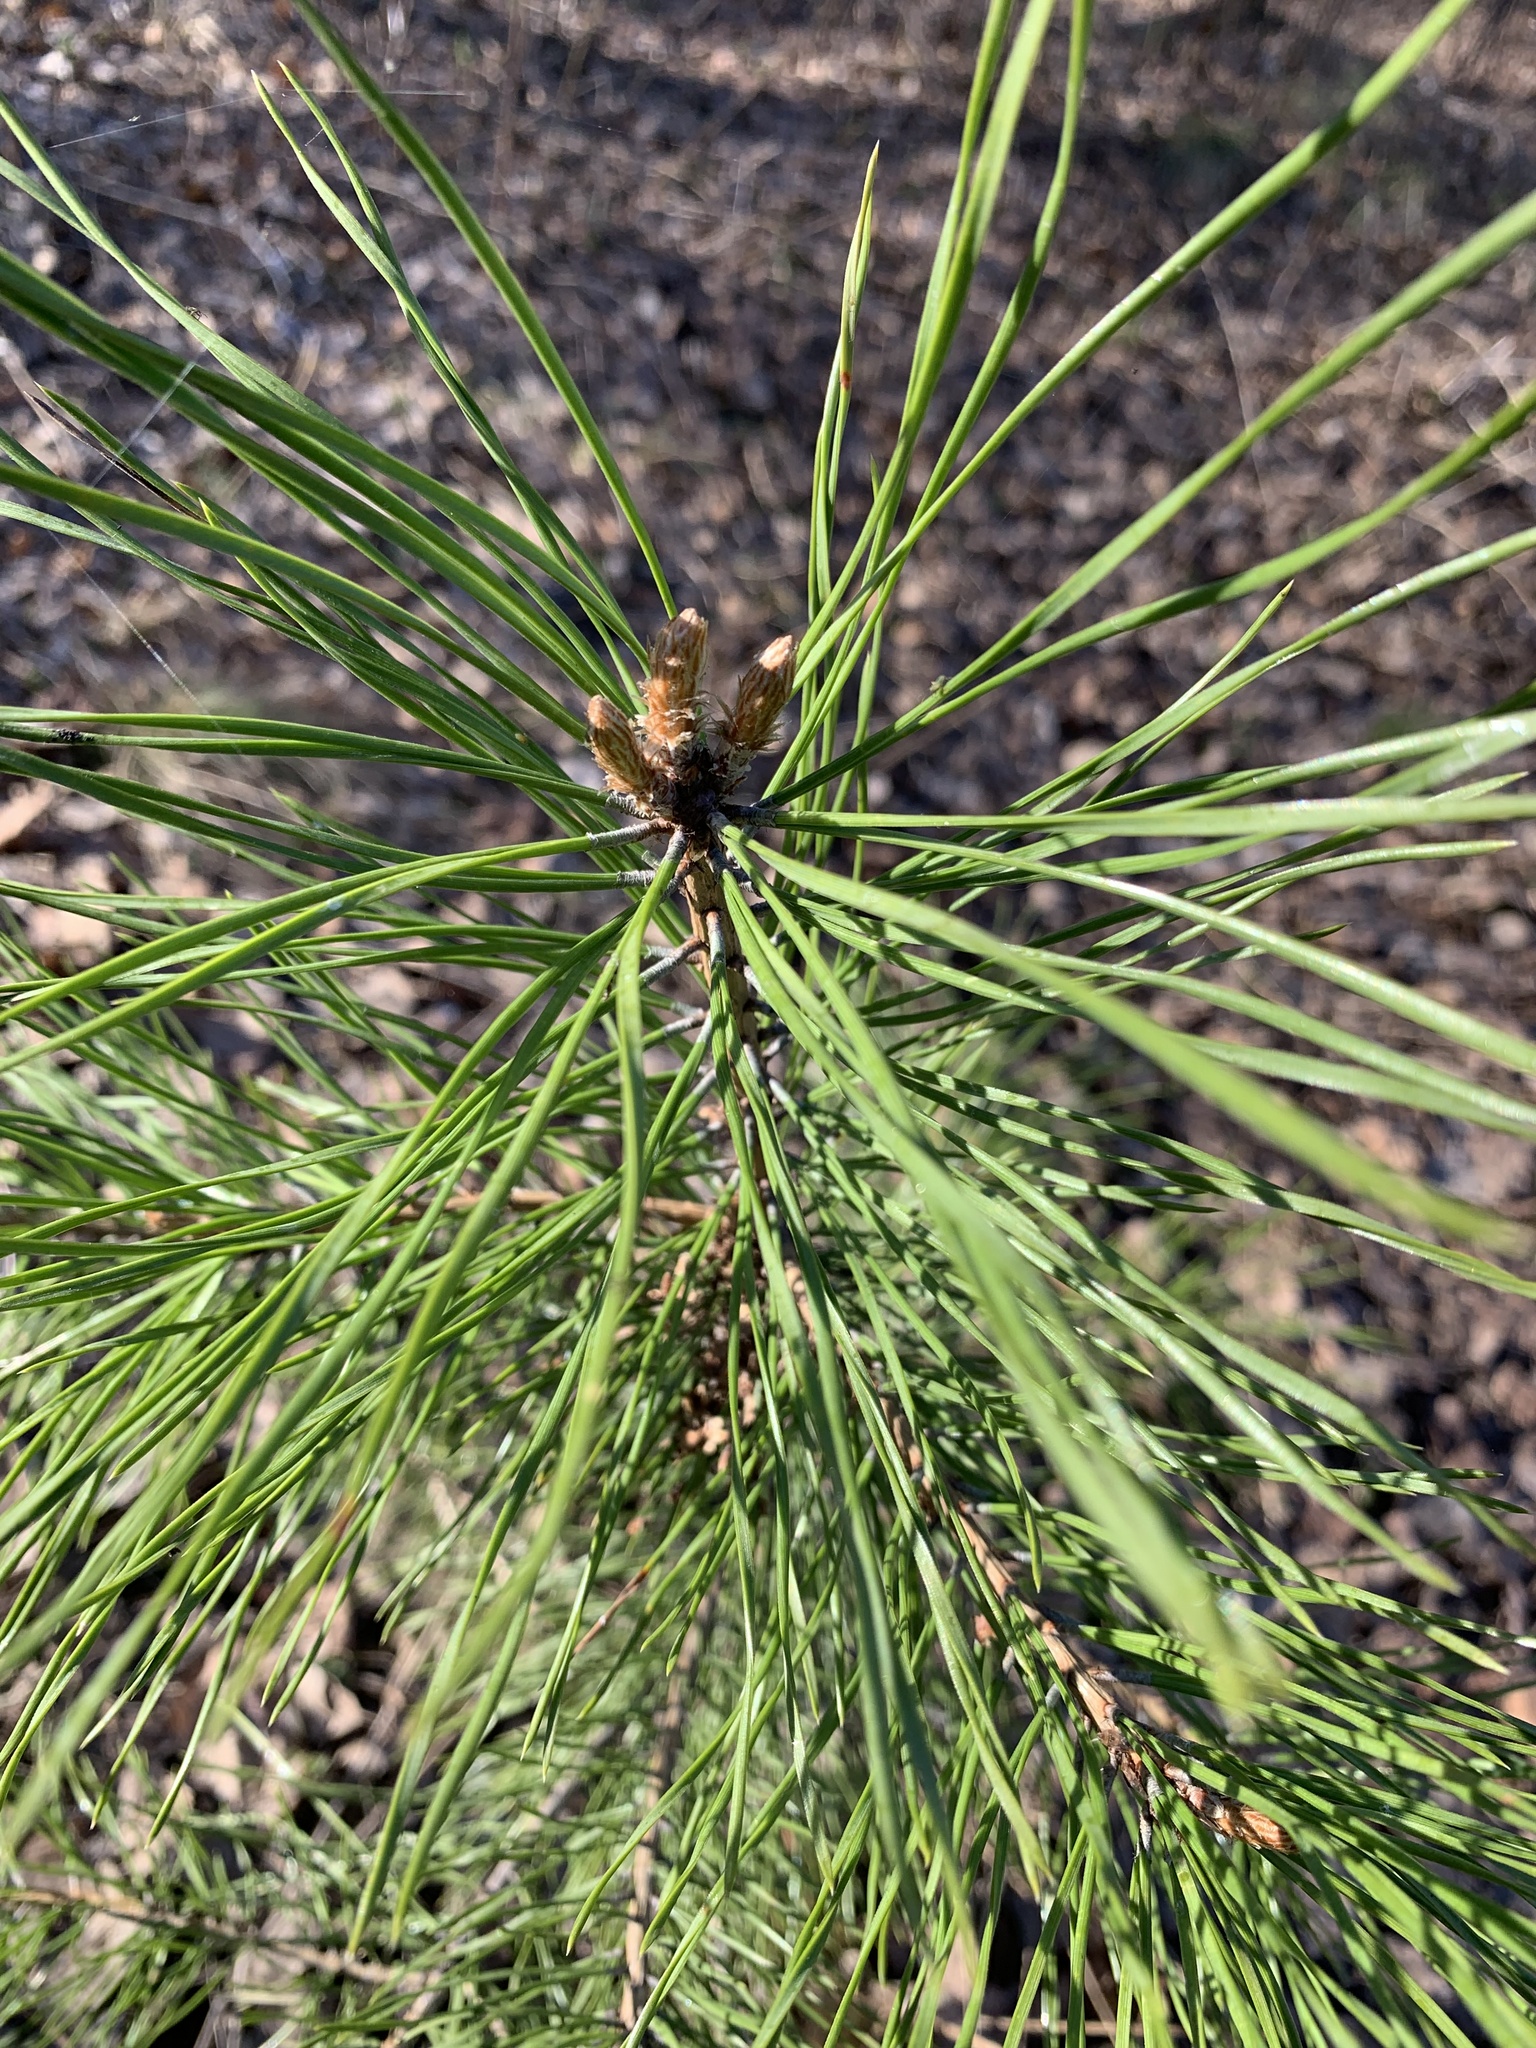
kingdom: Plantae
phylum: Tracheophyta
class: Pinopsida
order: Pinales
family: Pinaceae
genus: Pinus
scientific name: Pinus sylvestris
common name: Scots pine
